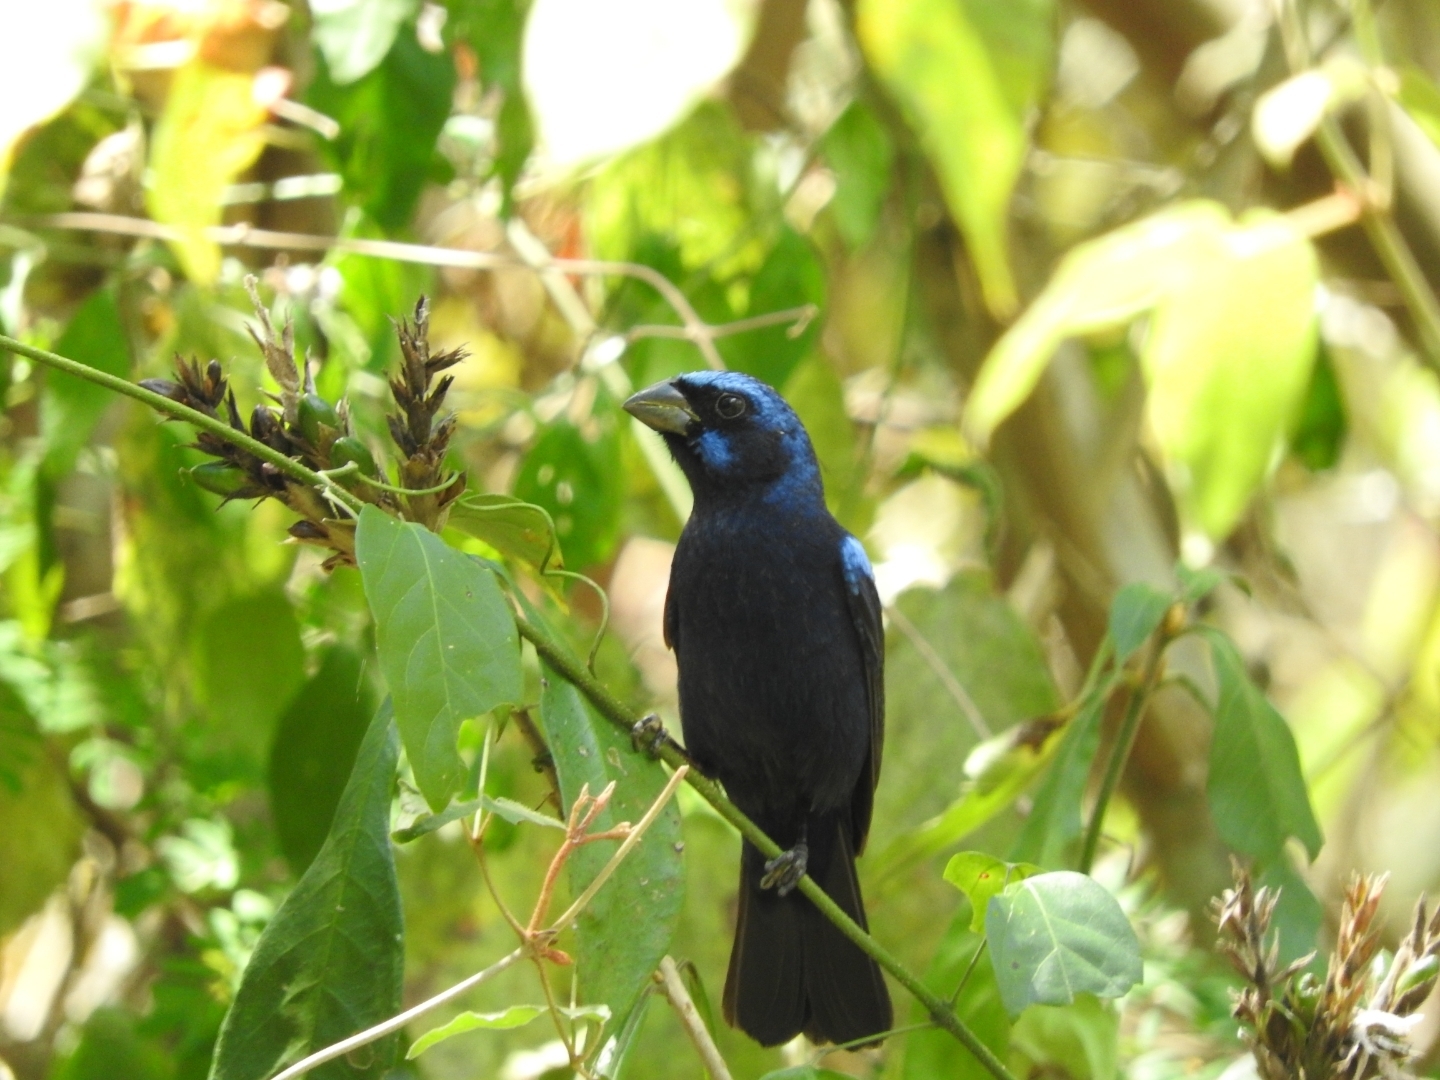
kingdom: Animalia
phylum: Chordata
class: Aves
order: Passeriformes
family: Cardinalidae
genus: Cyanocompsa
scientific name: Cyanocompsa parellina
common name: Blue bunting
